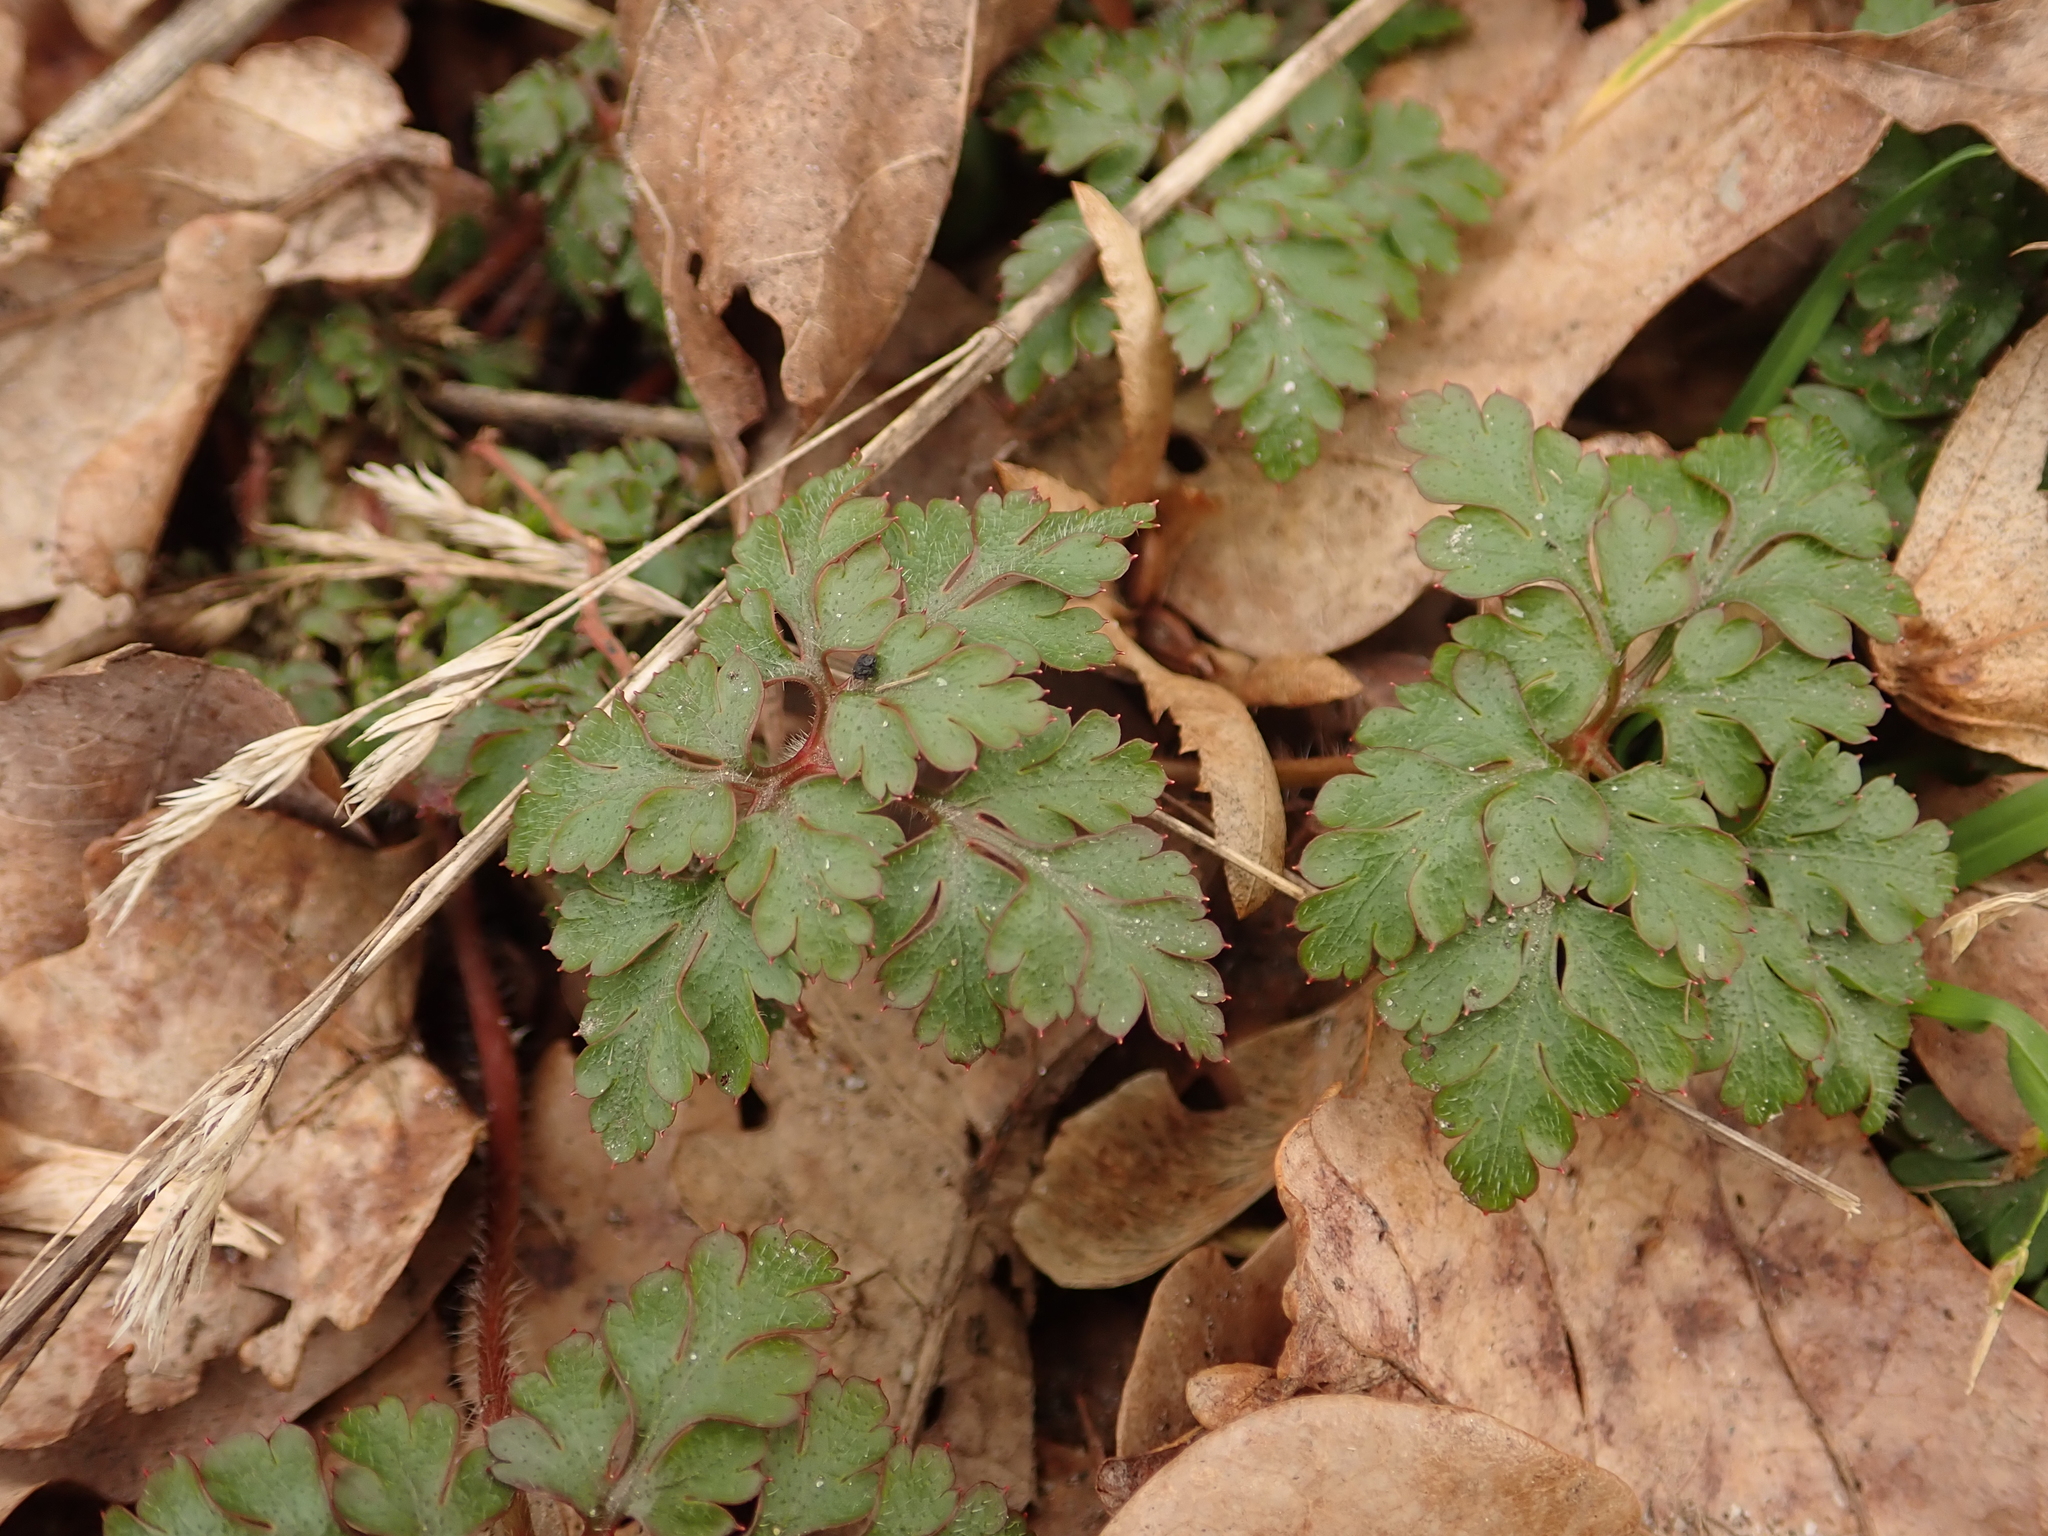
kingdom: Plantae
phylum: Tracheophyta
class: Magnoliopsida
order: Geraniales
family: Geraniaceae
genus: Geranium
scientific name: Geranium robertianum
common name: Herb-robert
